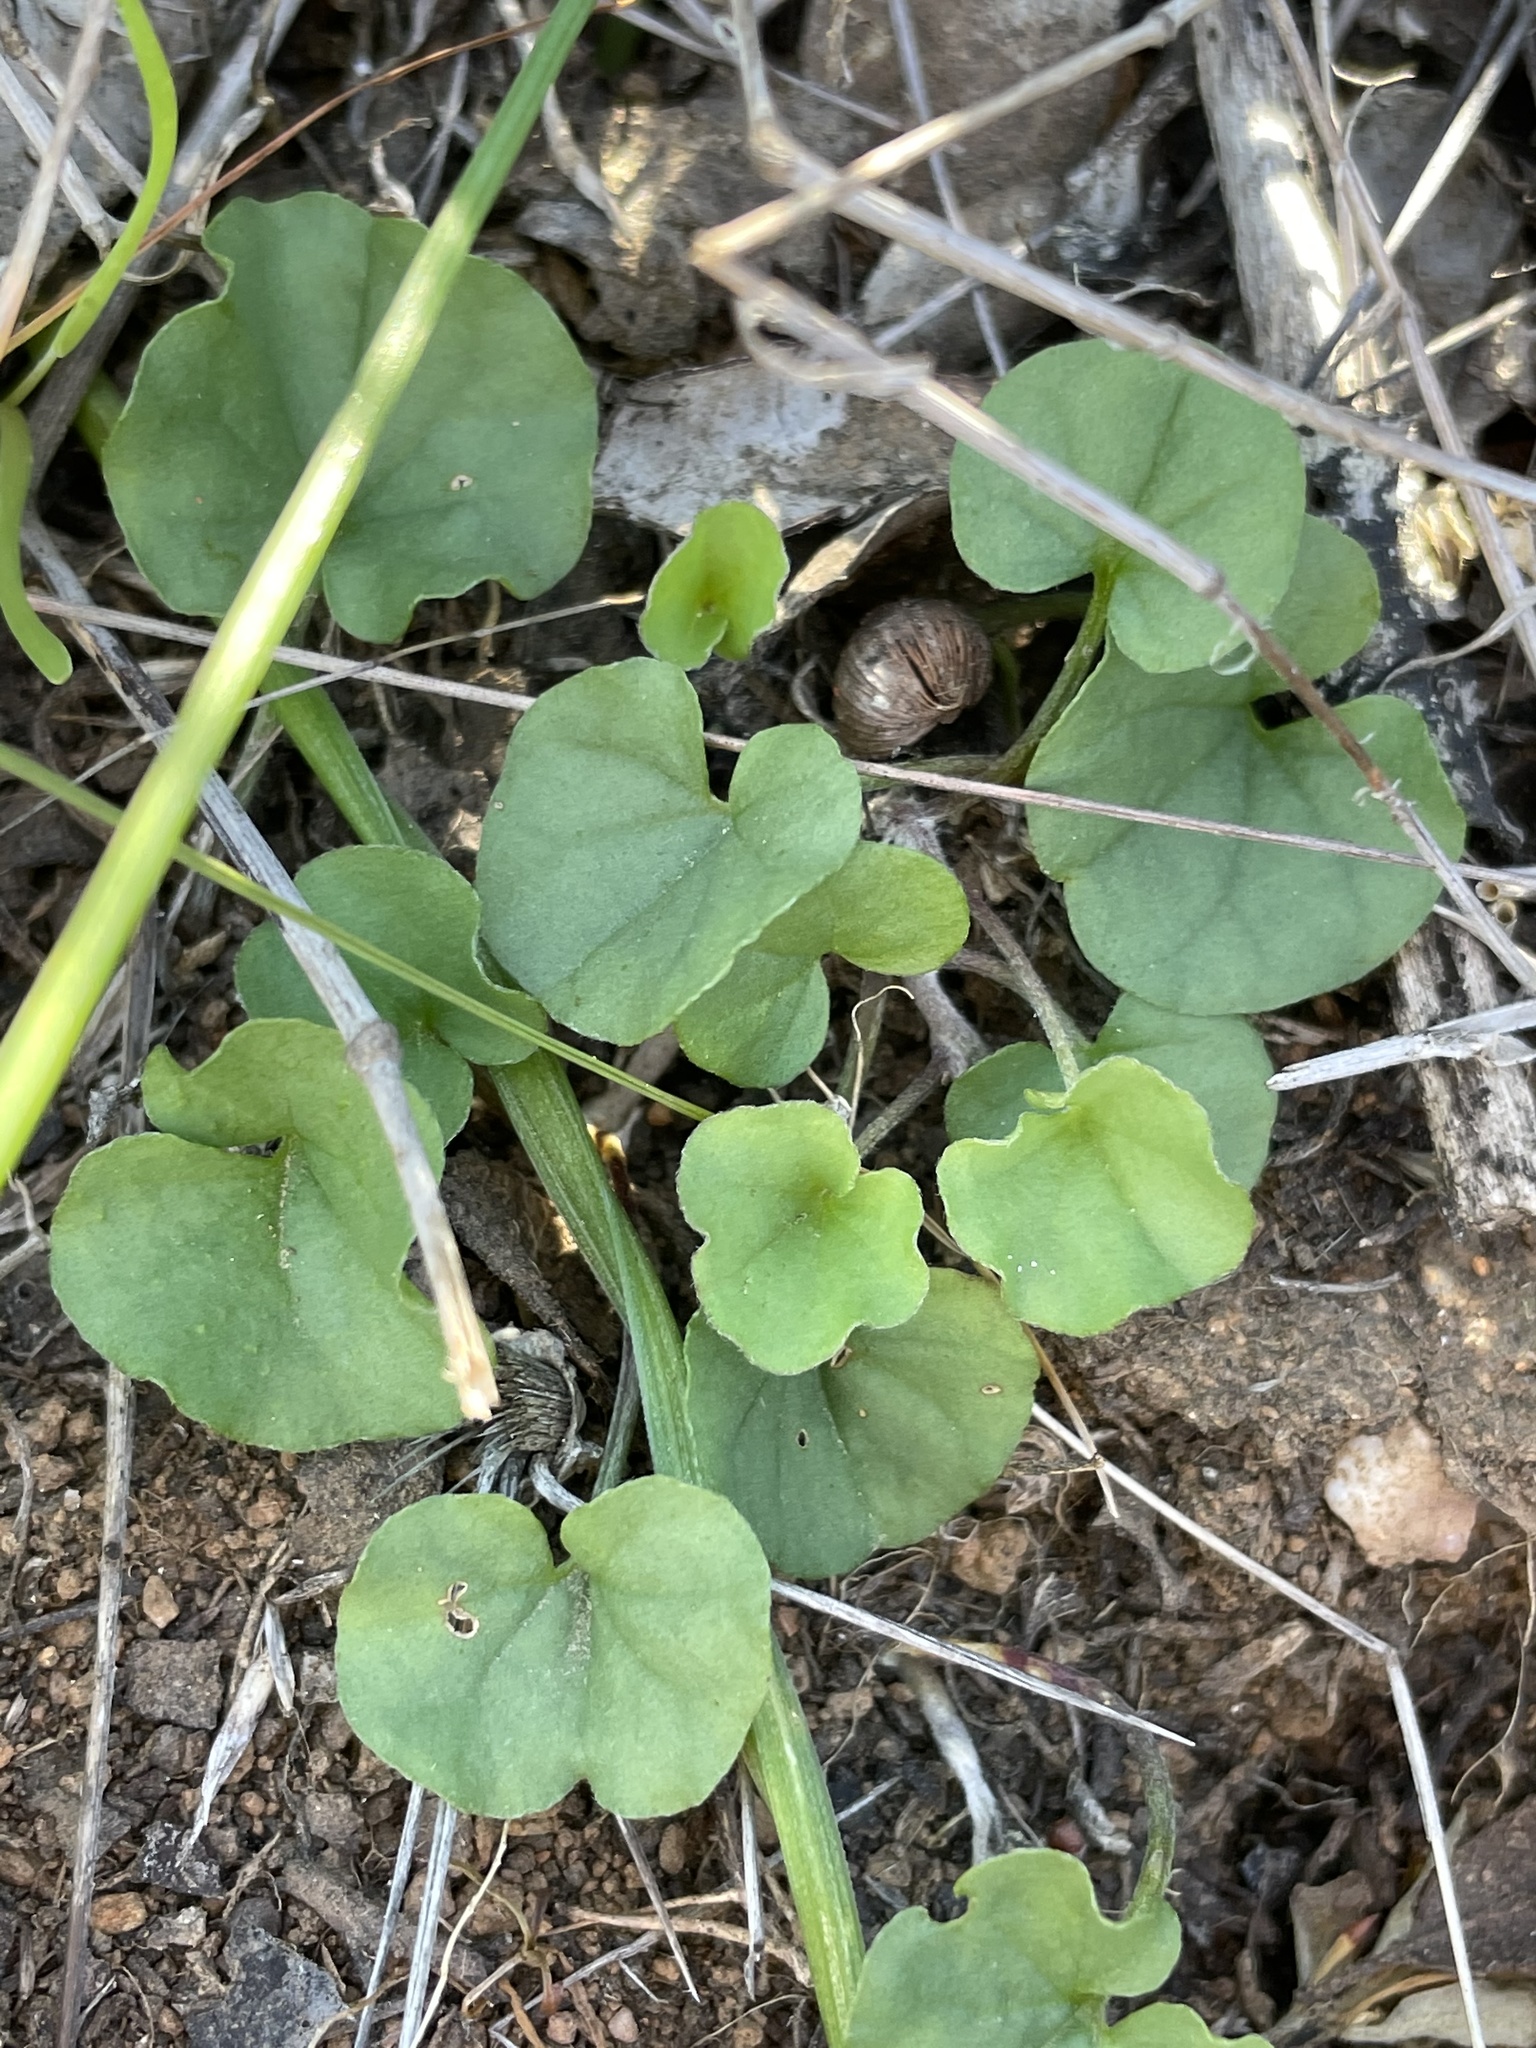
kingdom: Plantae
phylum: Tracheophyta
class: Magnoliopsida
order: Solanales
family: Convolvulaceae
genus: Dichondra
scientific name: Dichondra occidentalis
